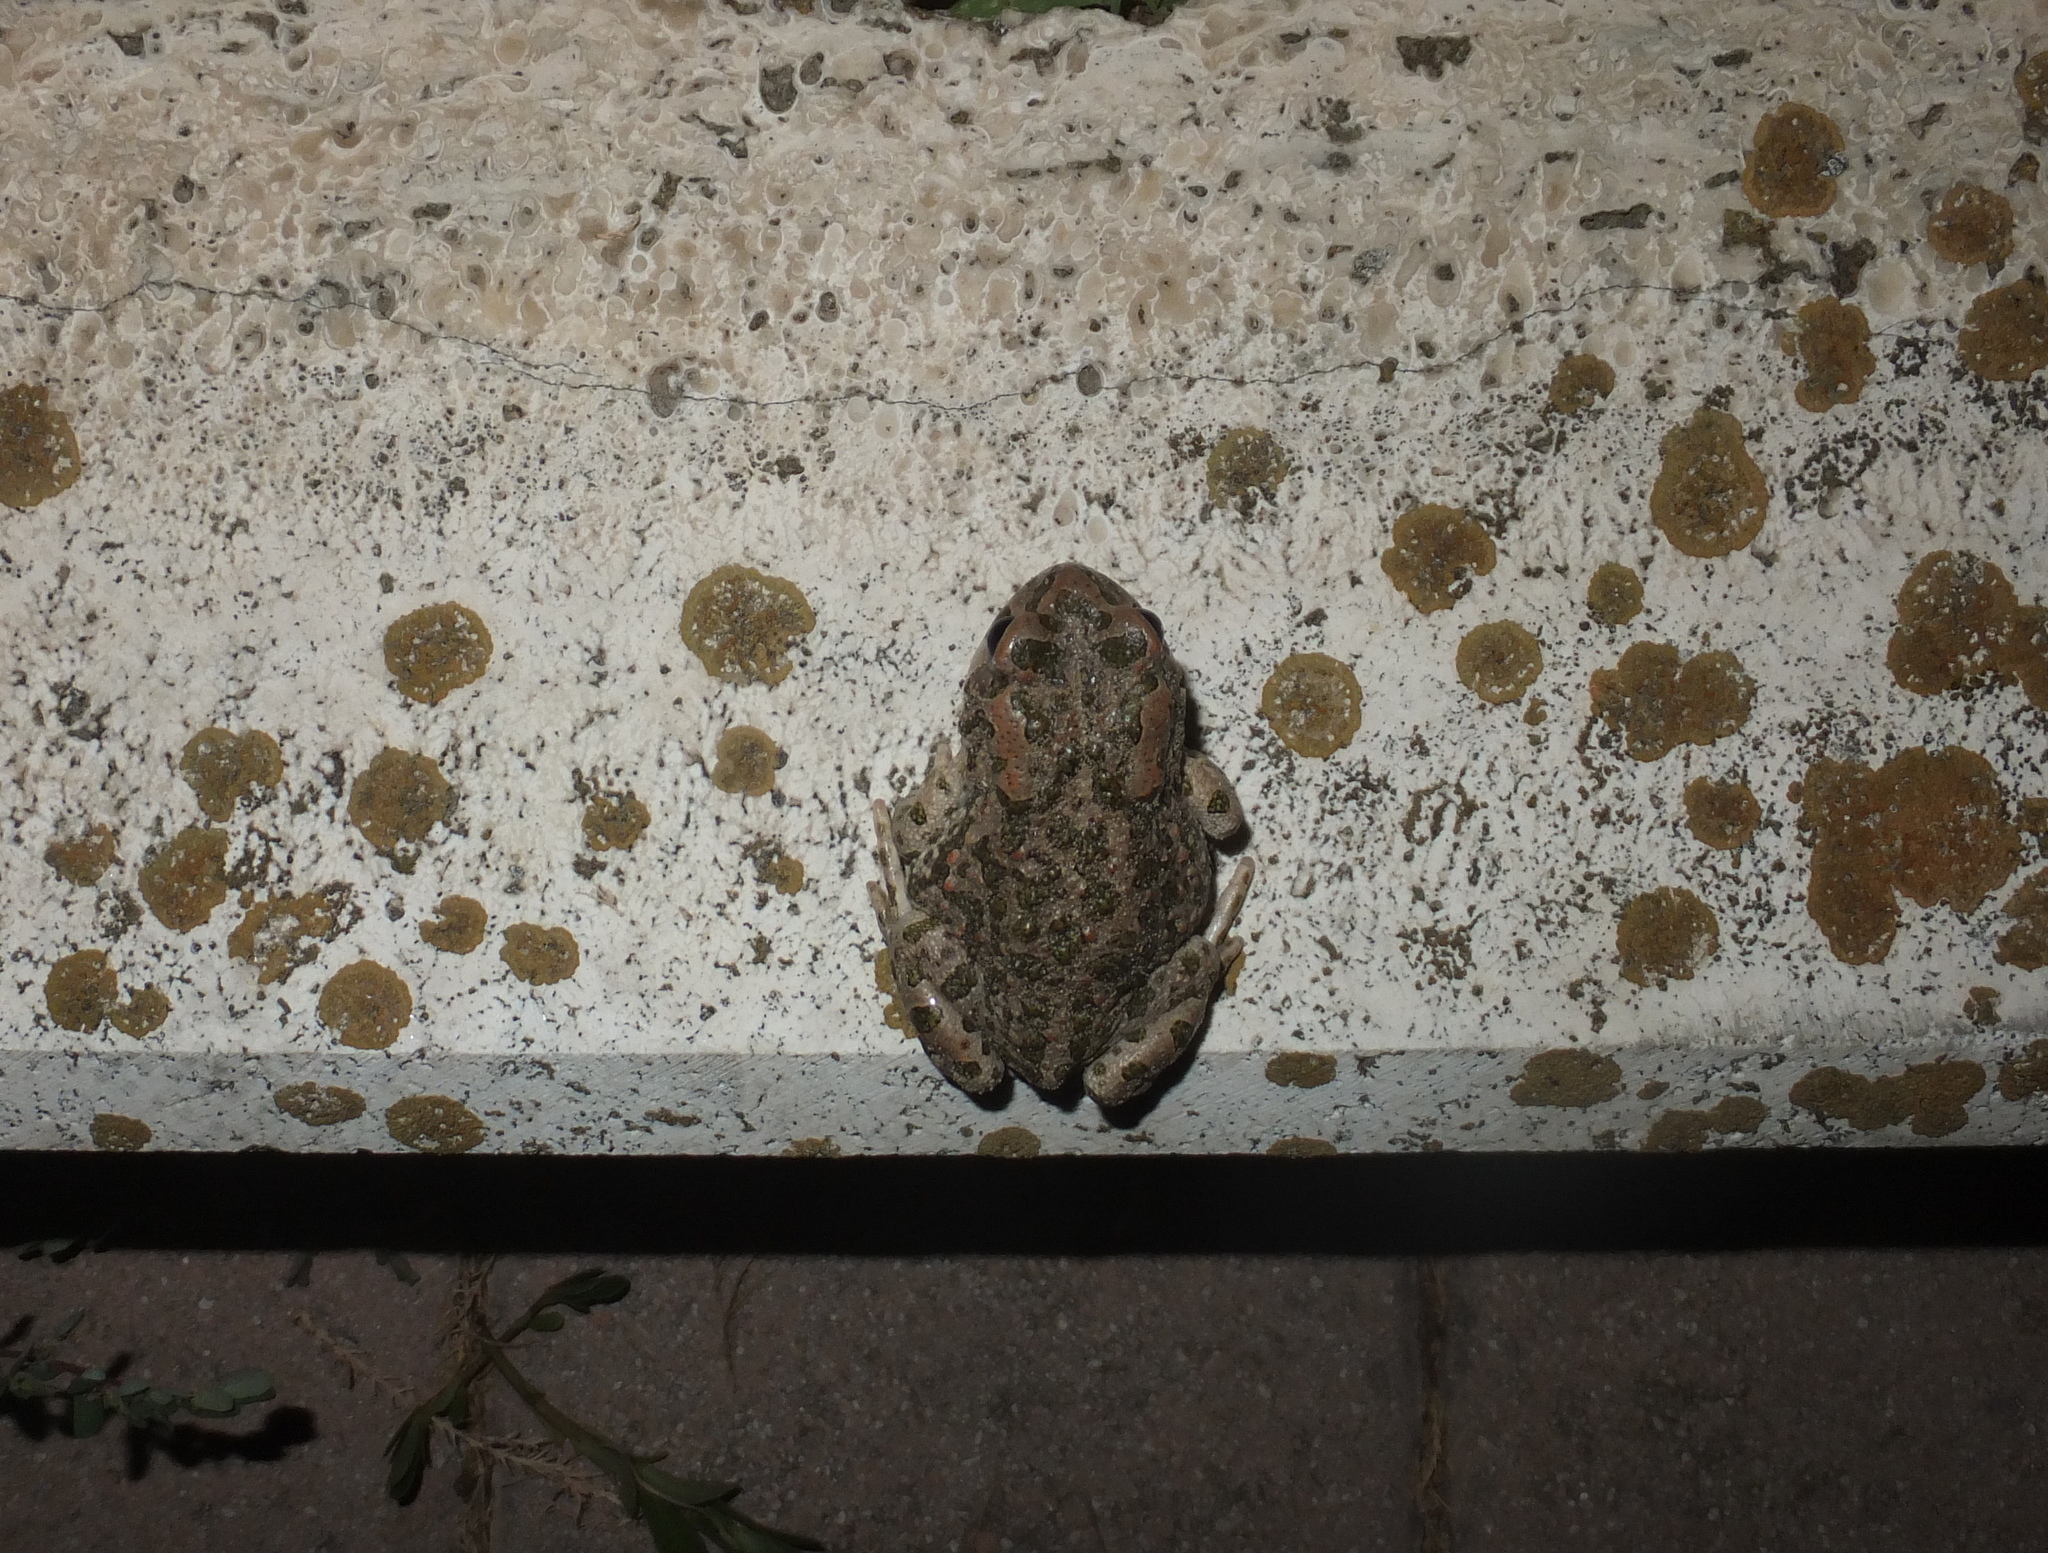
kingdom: Animalia
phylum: Chordata
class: Amphibia
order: Anura
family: Bufonidae
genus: Bufotes
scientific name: Bufotes viridis
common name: European green toad
